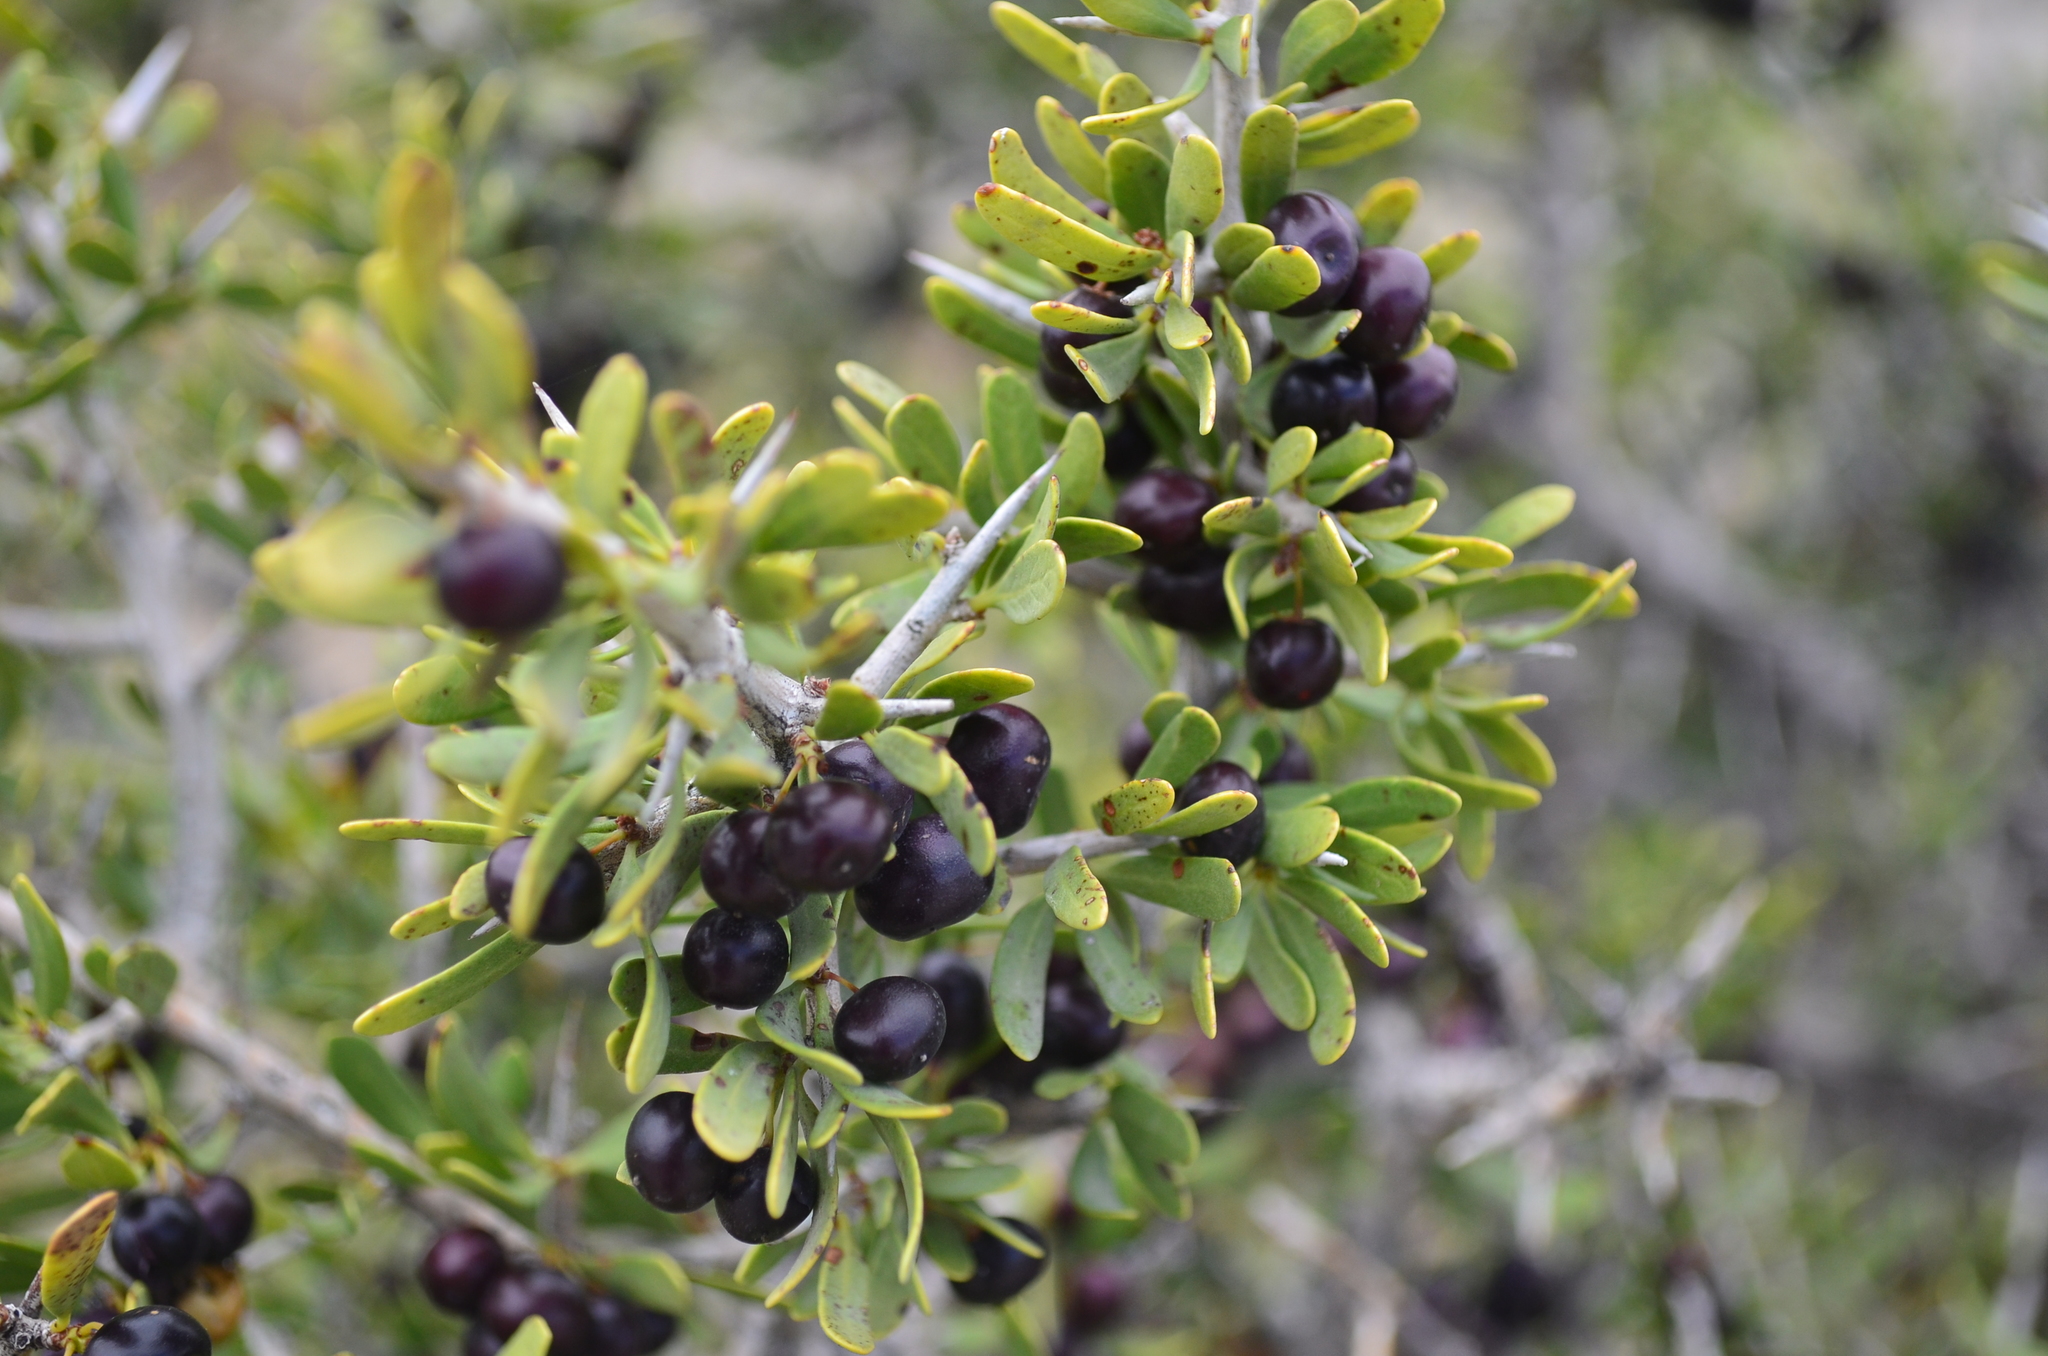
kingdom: Plantae
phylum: Tracheophyta
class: Magnoliopsida
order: Sapindales
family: Anacardiaceae
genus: Schinus
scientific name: Schinus johnstonii
